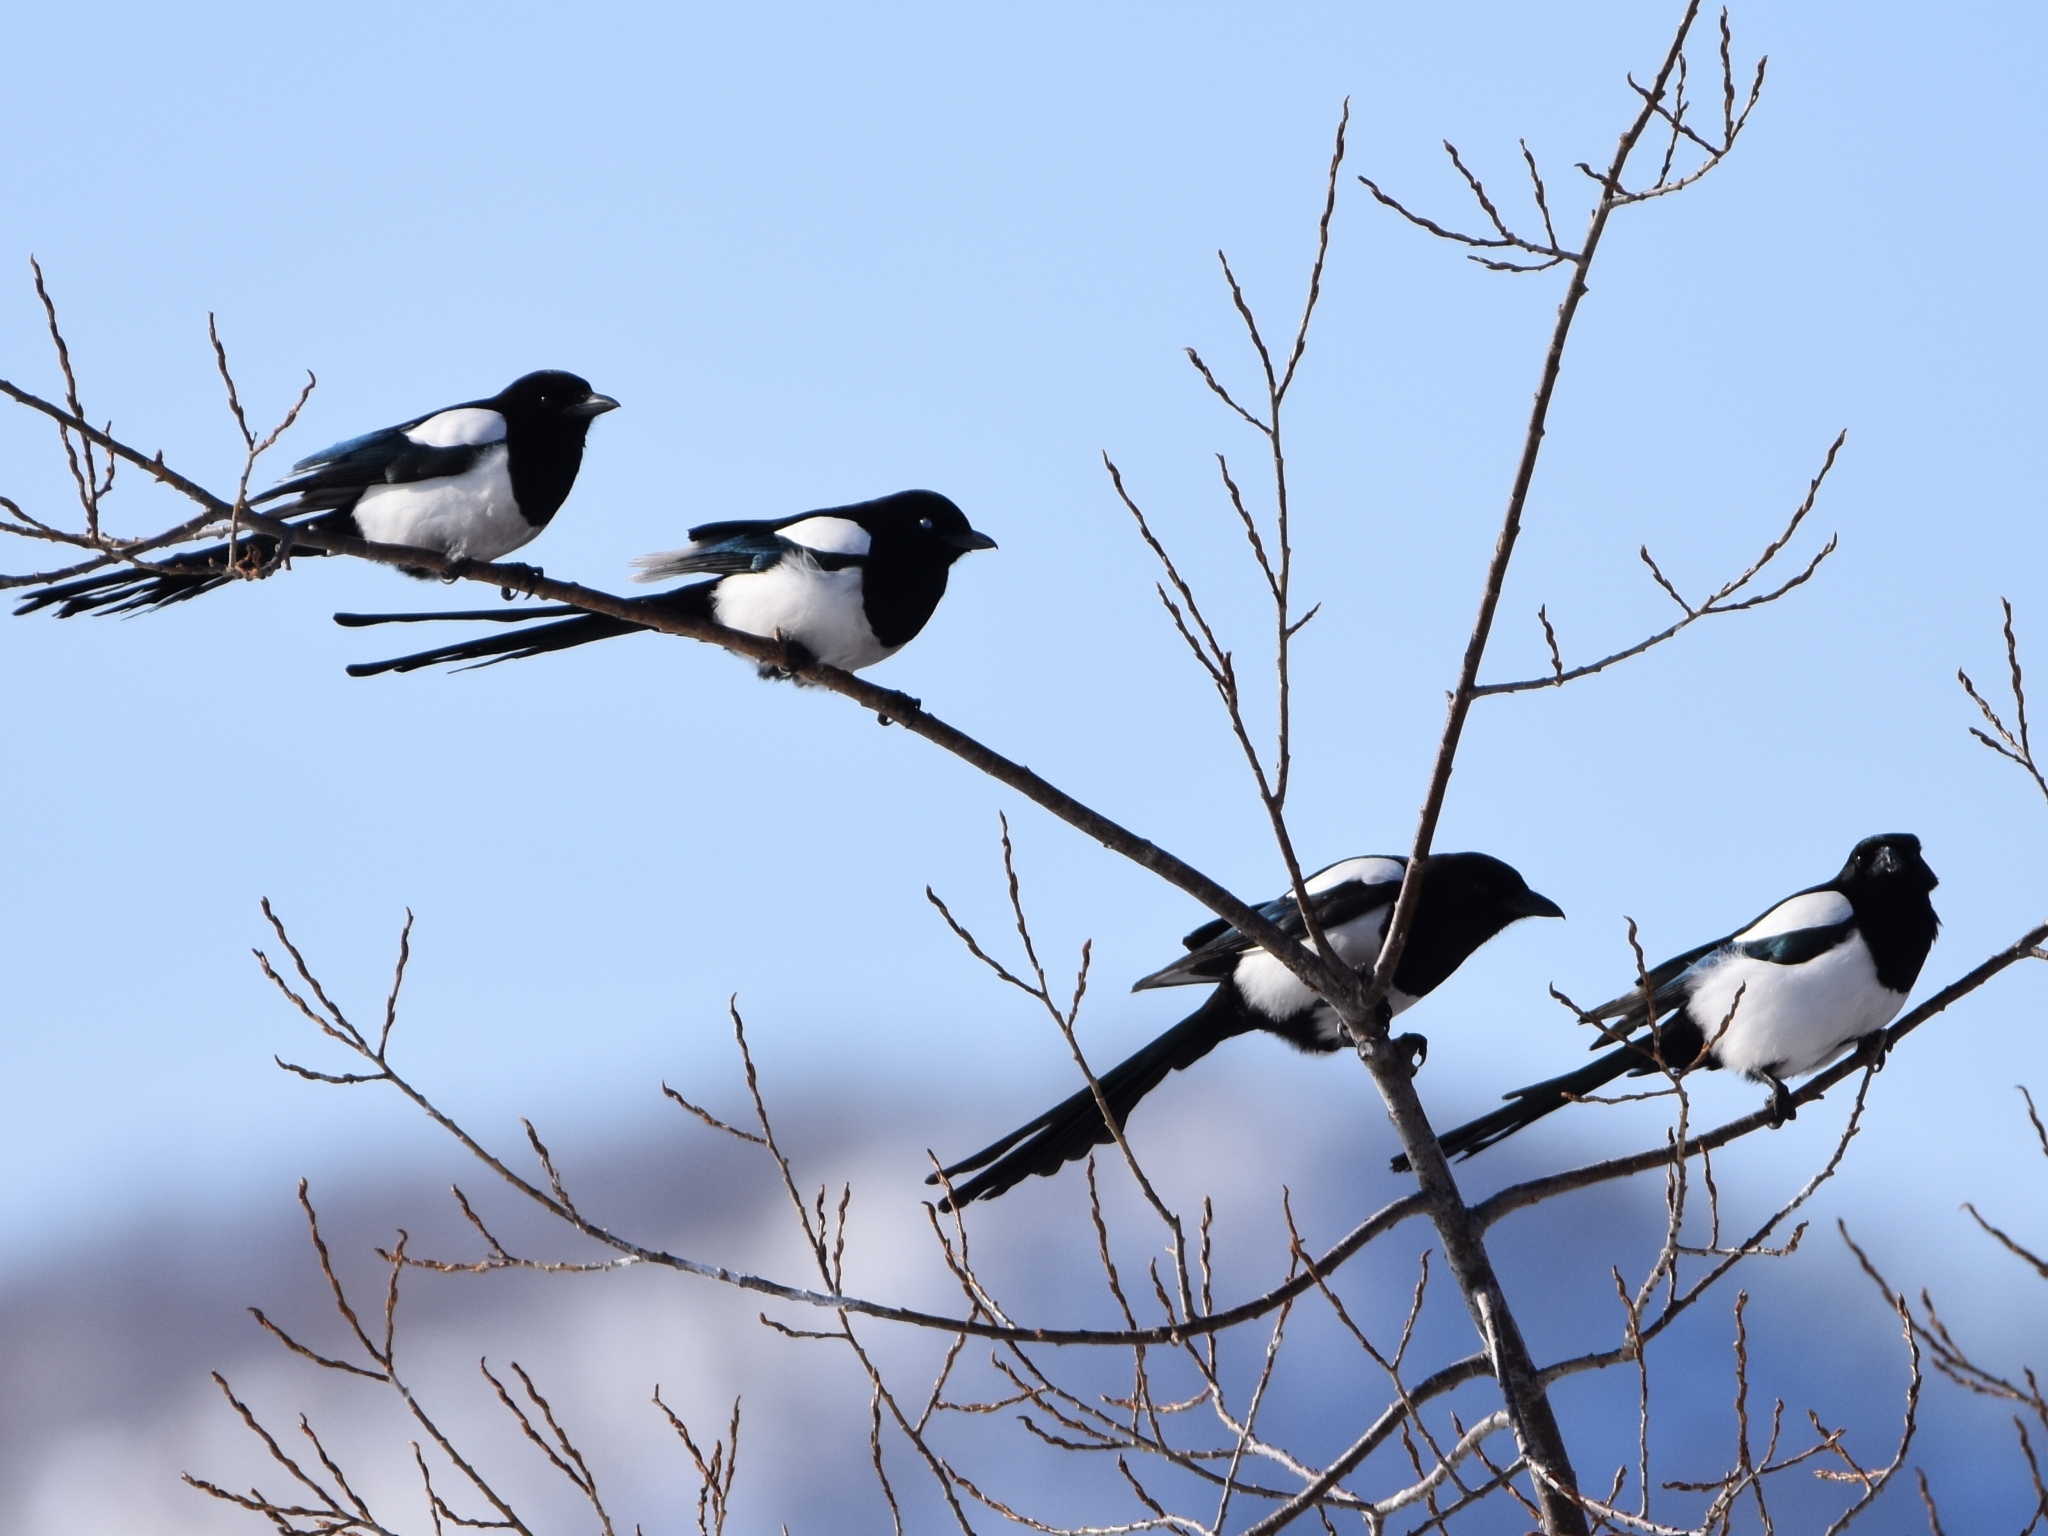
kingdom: Animalia
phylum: Chordata
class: Aves
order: Passeriformes
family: Corvidae
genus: Pica
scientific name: Pica pica
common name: Eurasian magpie
